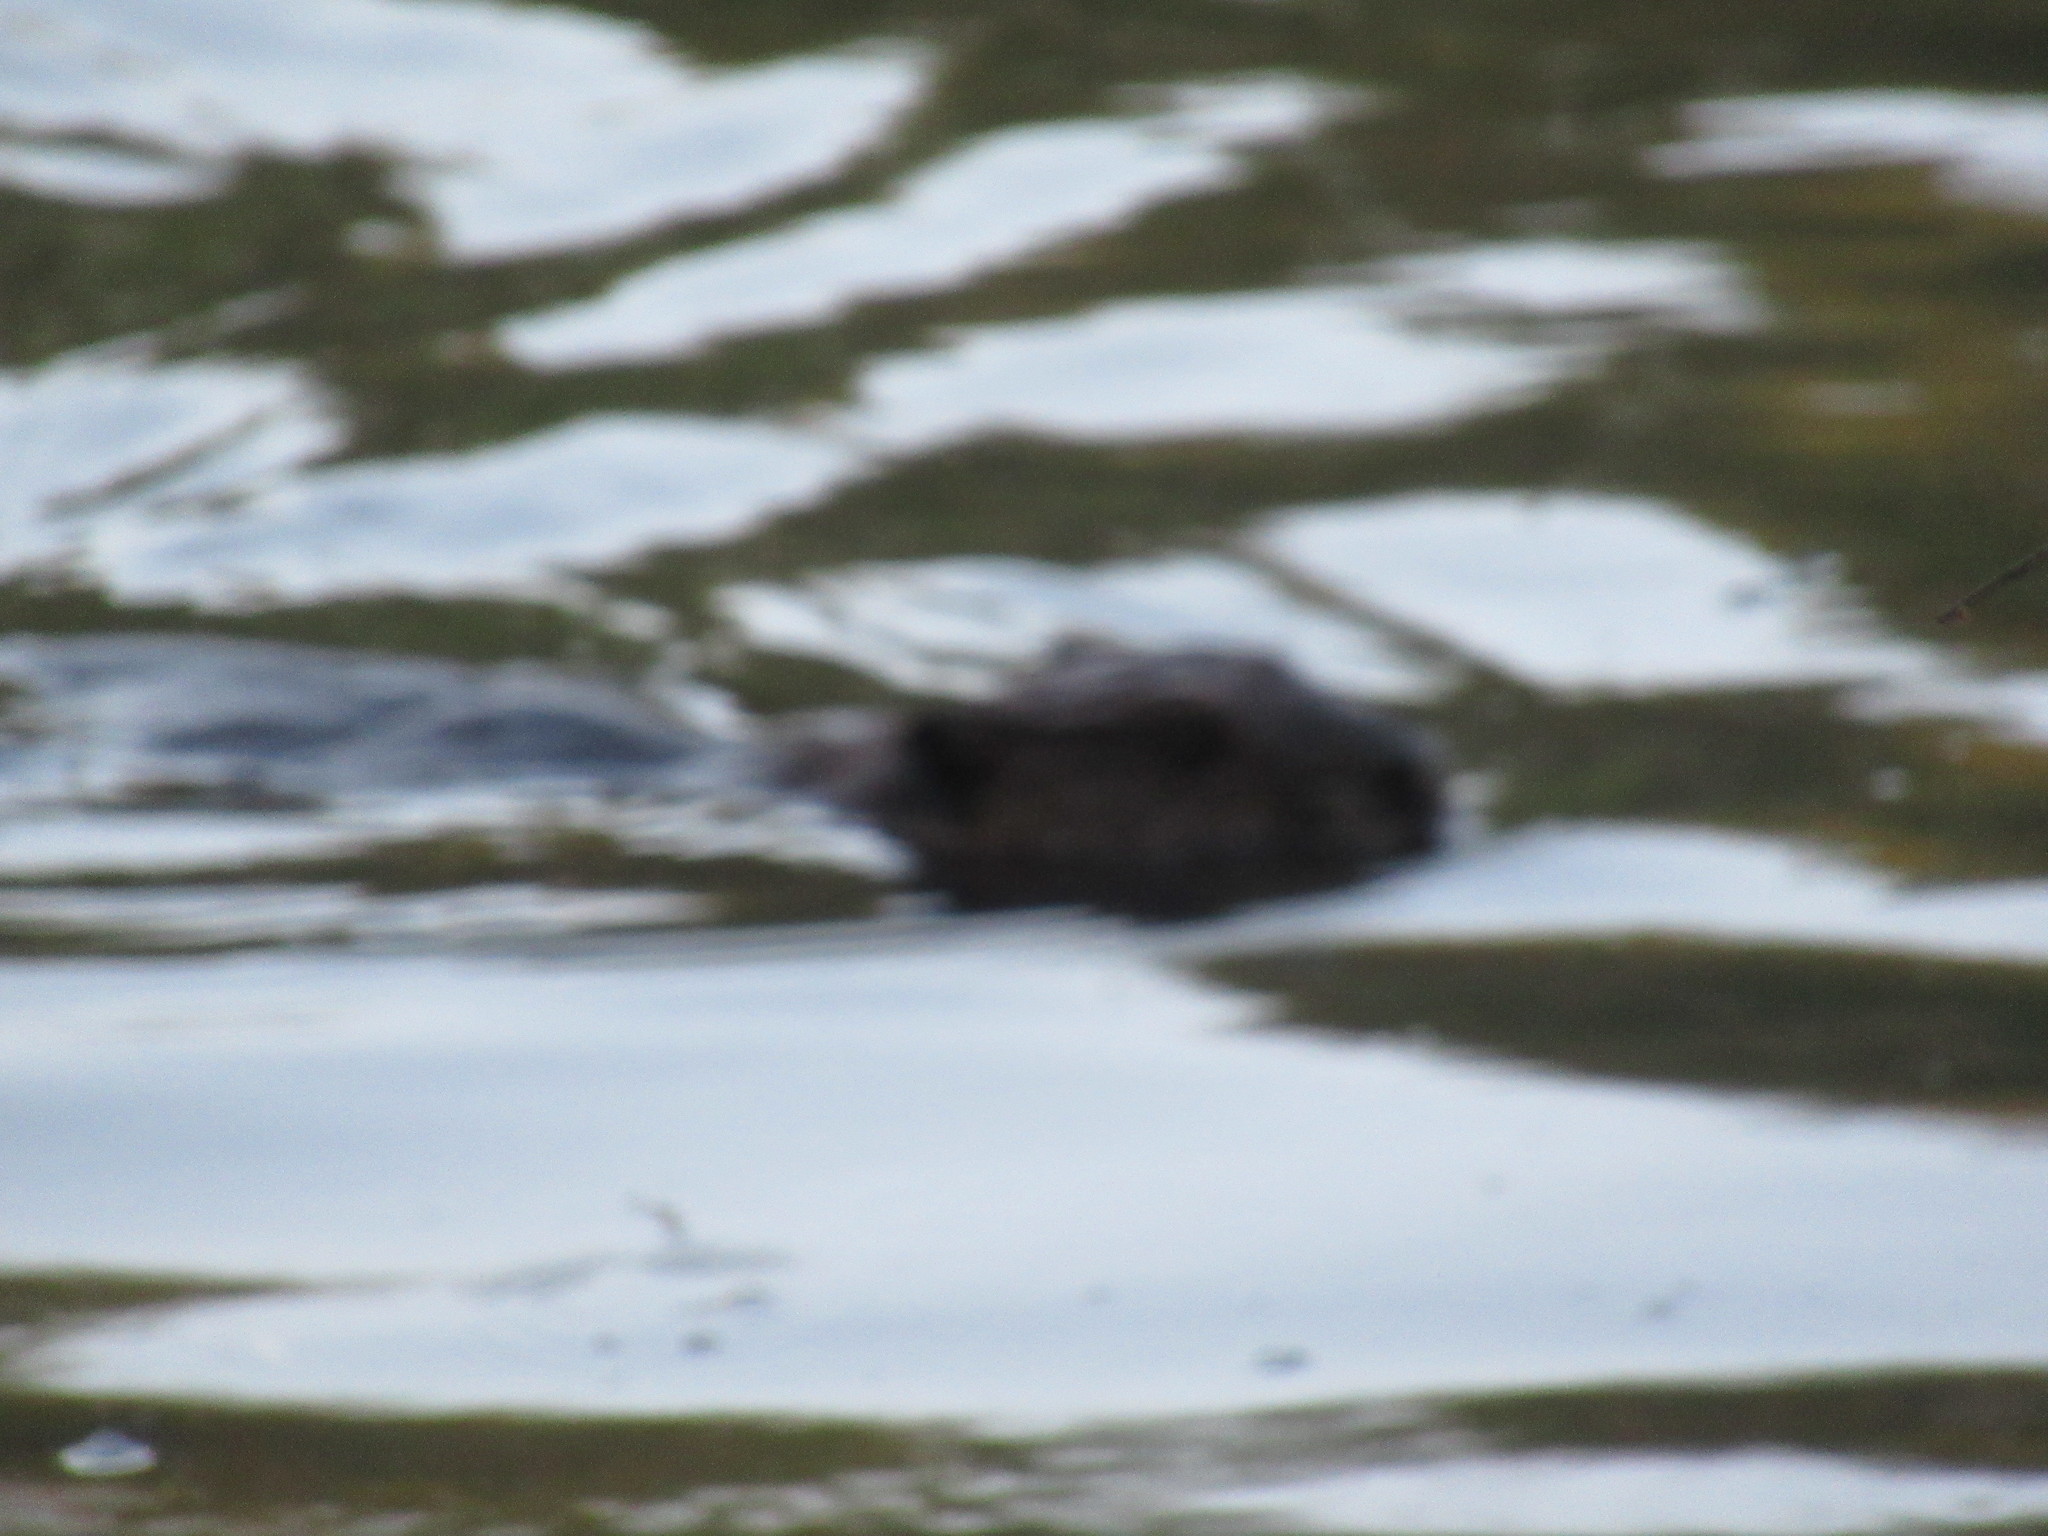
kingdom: Animalia
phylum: Chordata
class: Mammalia
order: Rodentia
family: Castoridae
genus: Castor
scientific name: Castor canadensis
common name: American beaver
